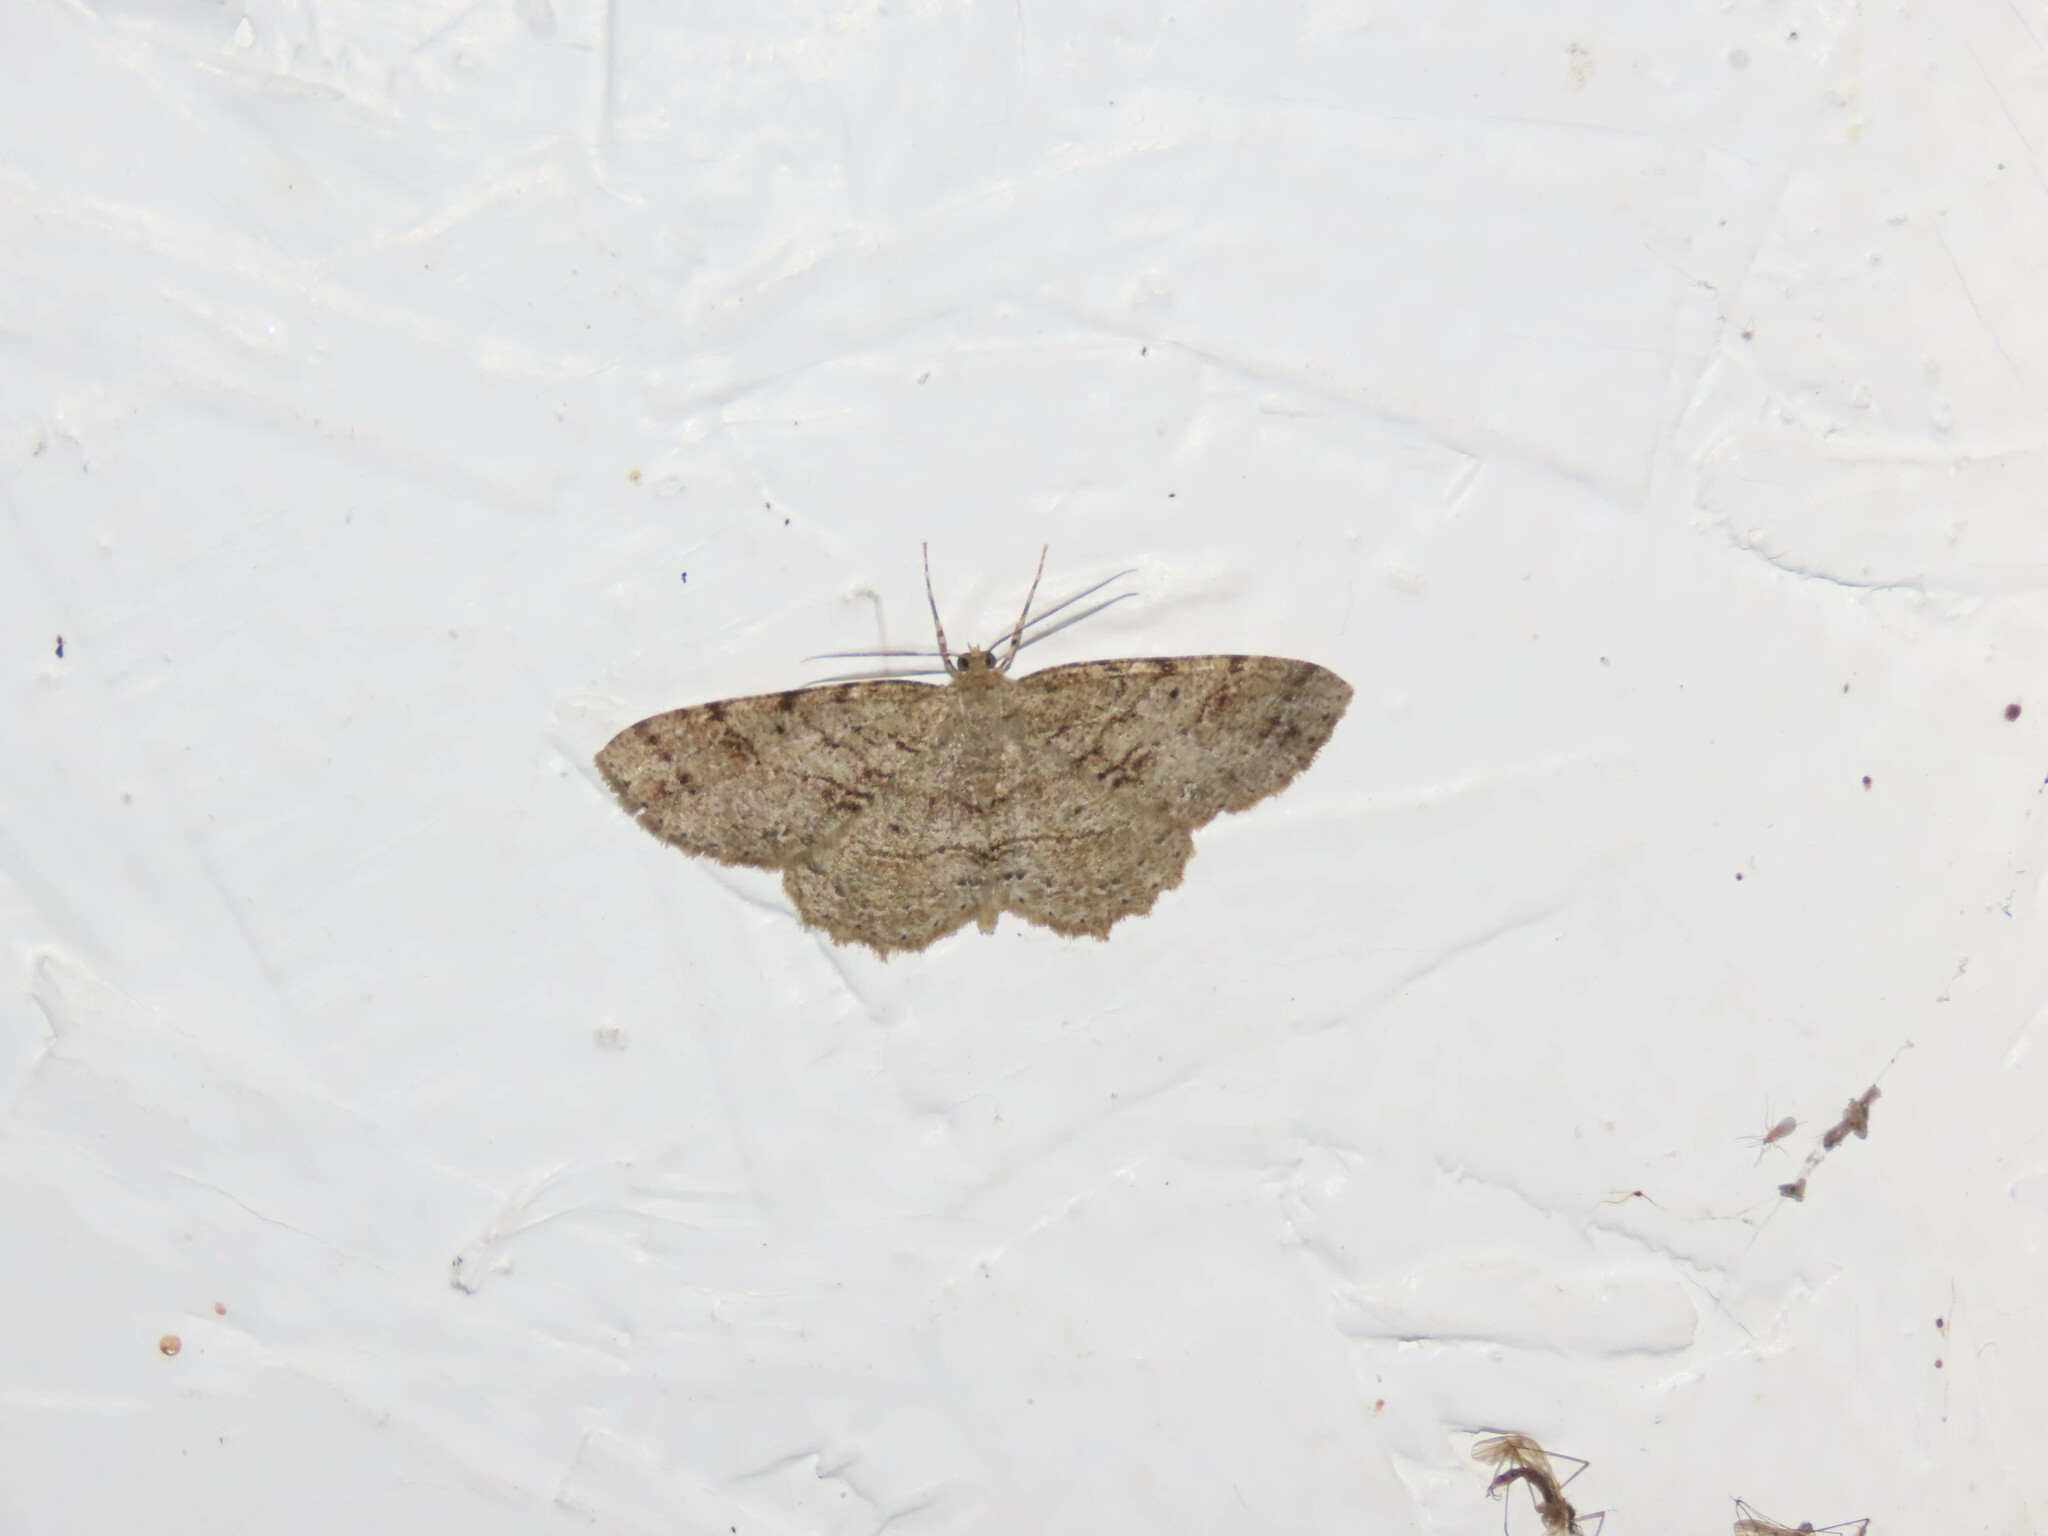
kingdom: Animalia
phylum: Arthropoda
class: Insecta
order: Lepidoptera
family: Geometridae
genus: Melanolophia
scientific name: Melanolophia canadaria
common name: Canadian melanolophia
